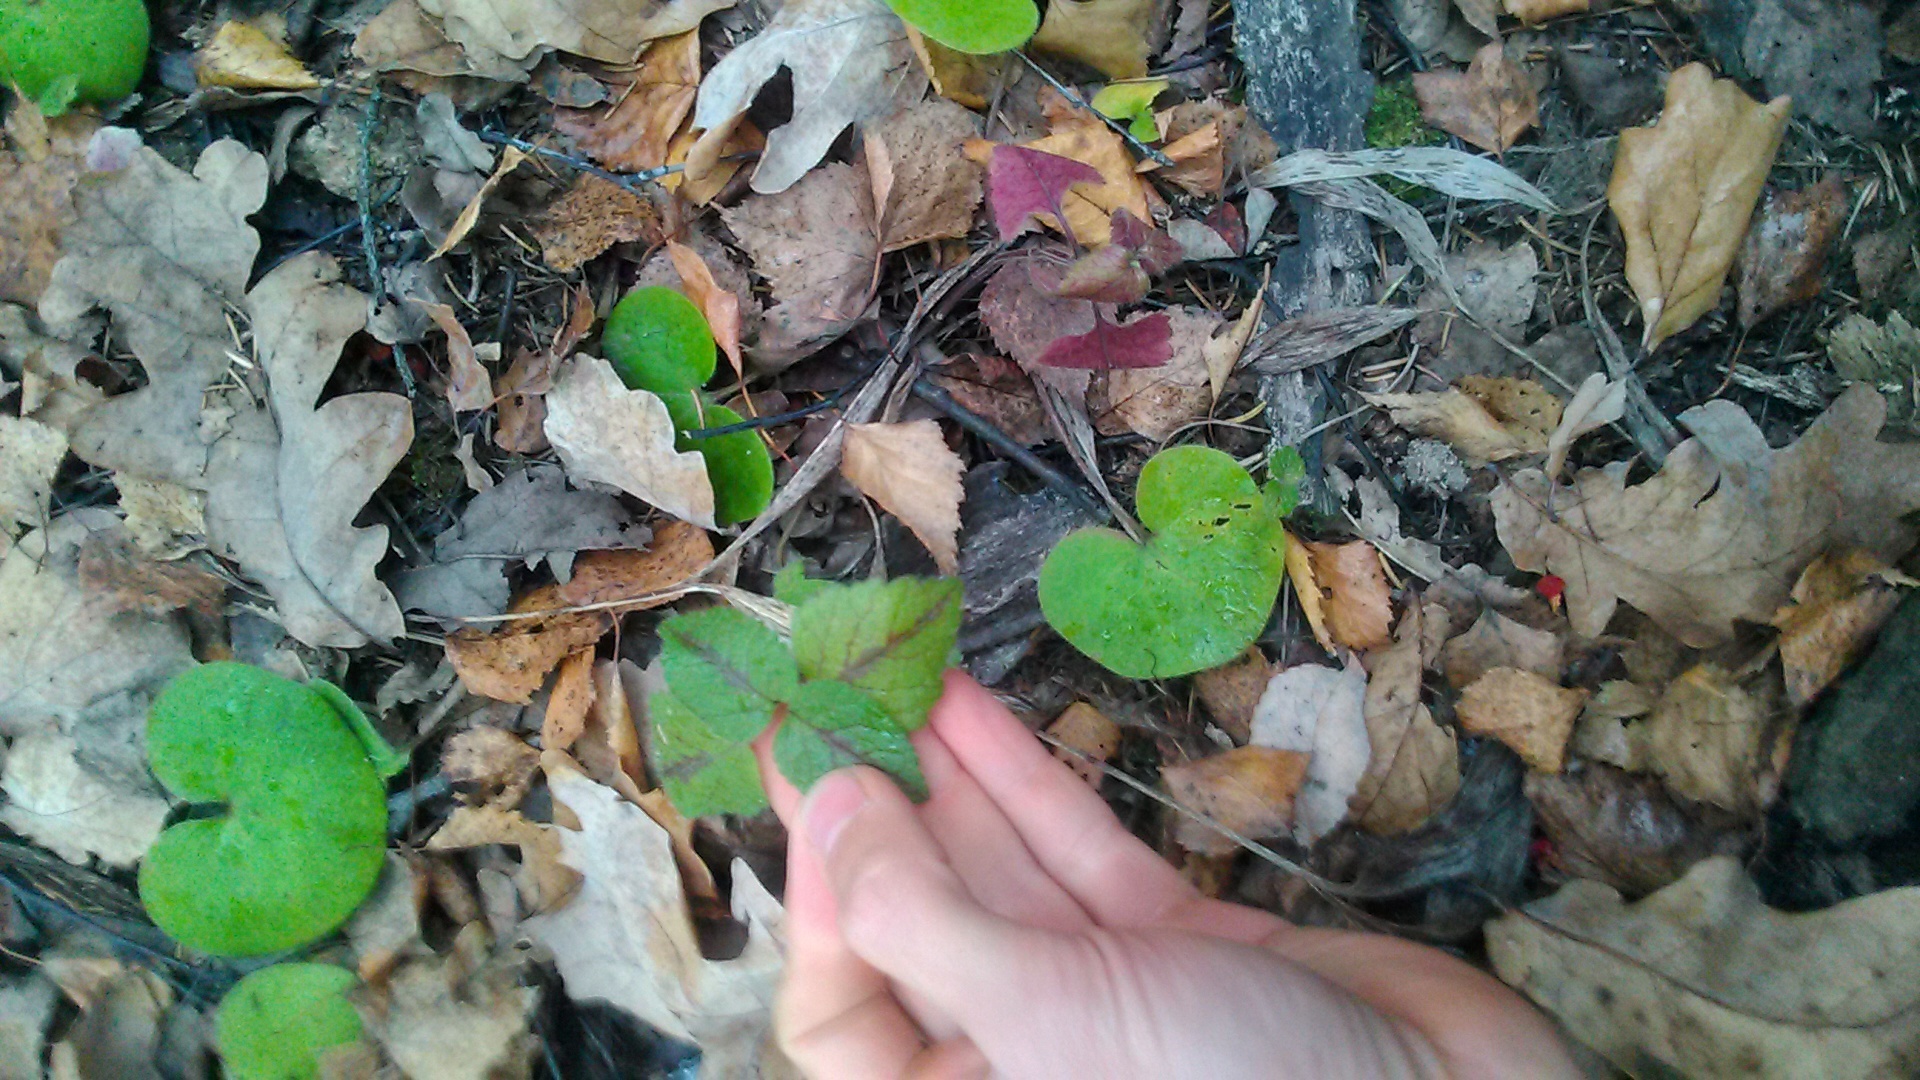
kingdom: Plantae
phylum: Tracheophyta
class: Magnoliopsida
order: Lamiales
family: Lamiaceae
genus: Lamium
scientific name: Lamium galeobdolon
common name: Yellow archangel
